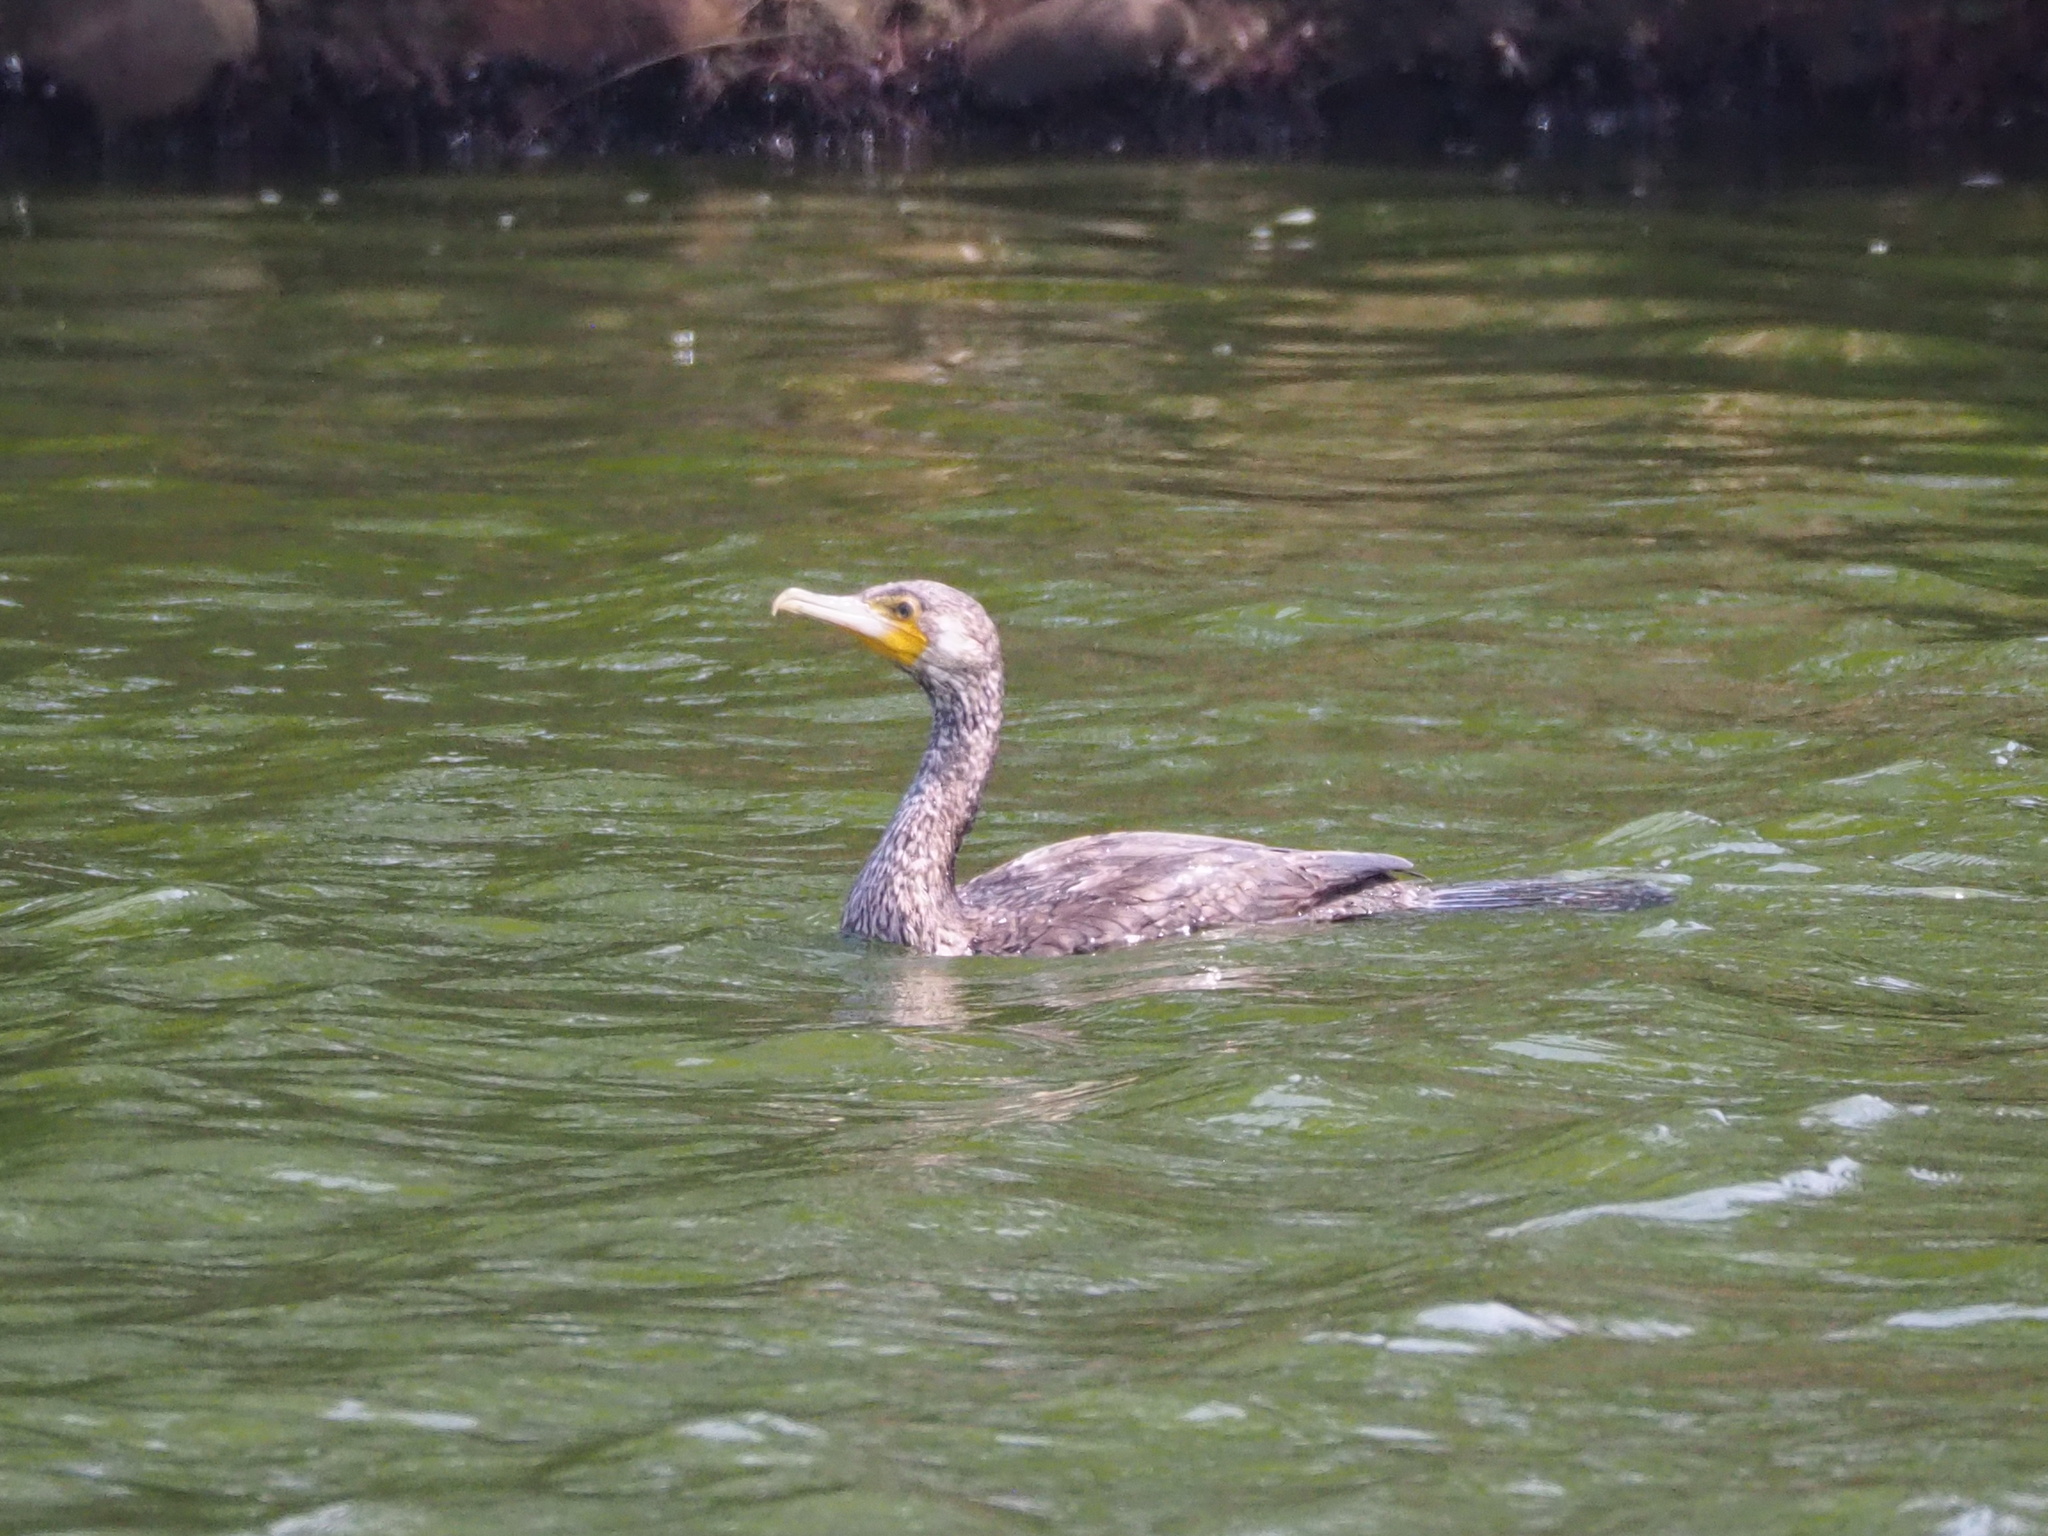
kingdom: Animalia
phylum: Chordata
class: Aves
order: Suliformes
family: Phalacrocoracidae
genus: Phalacrocorax
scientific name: Phalacrocorax carbo
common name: Great cormorant
